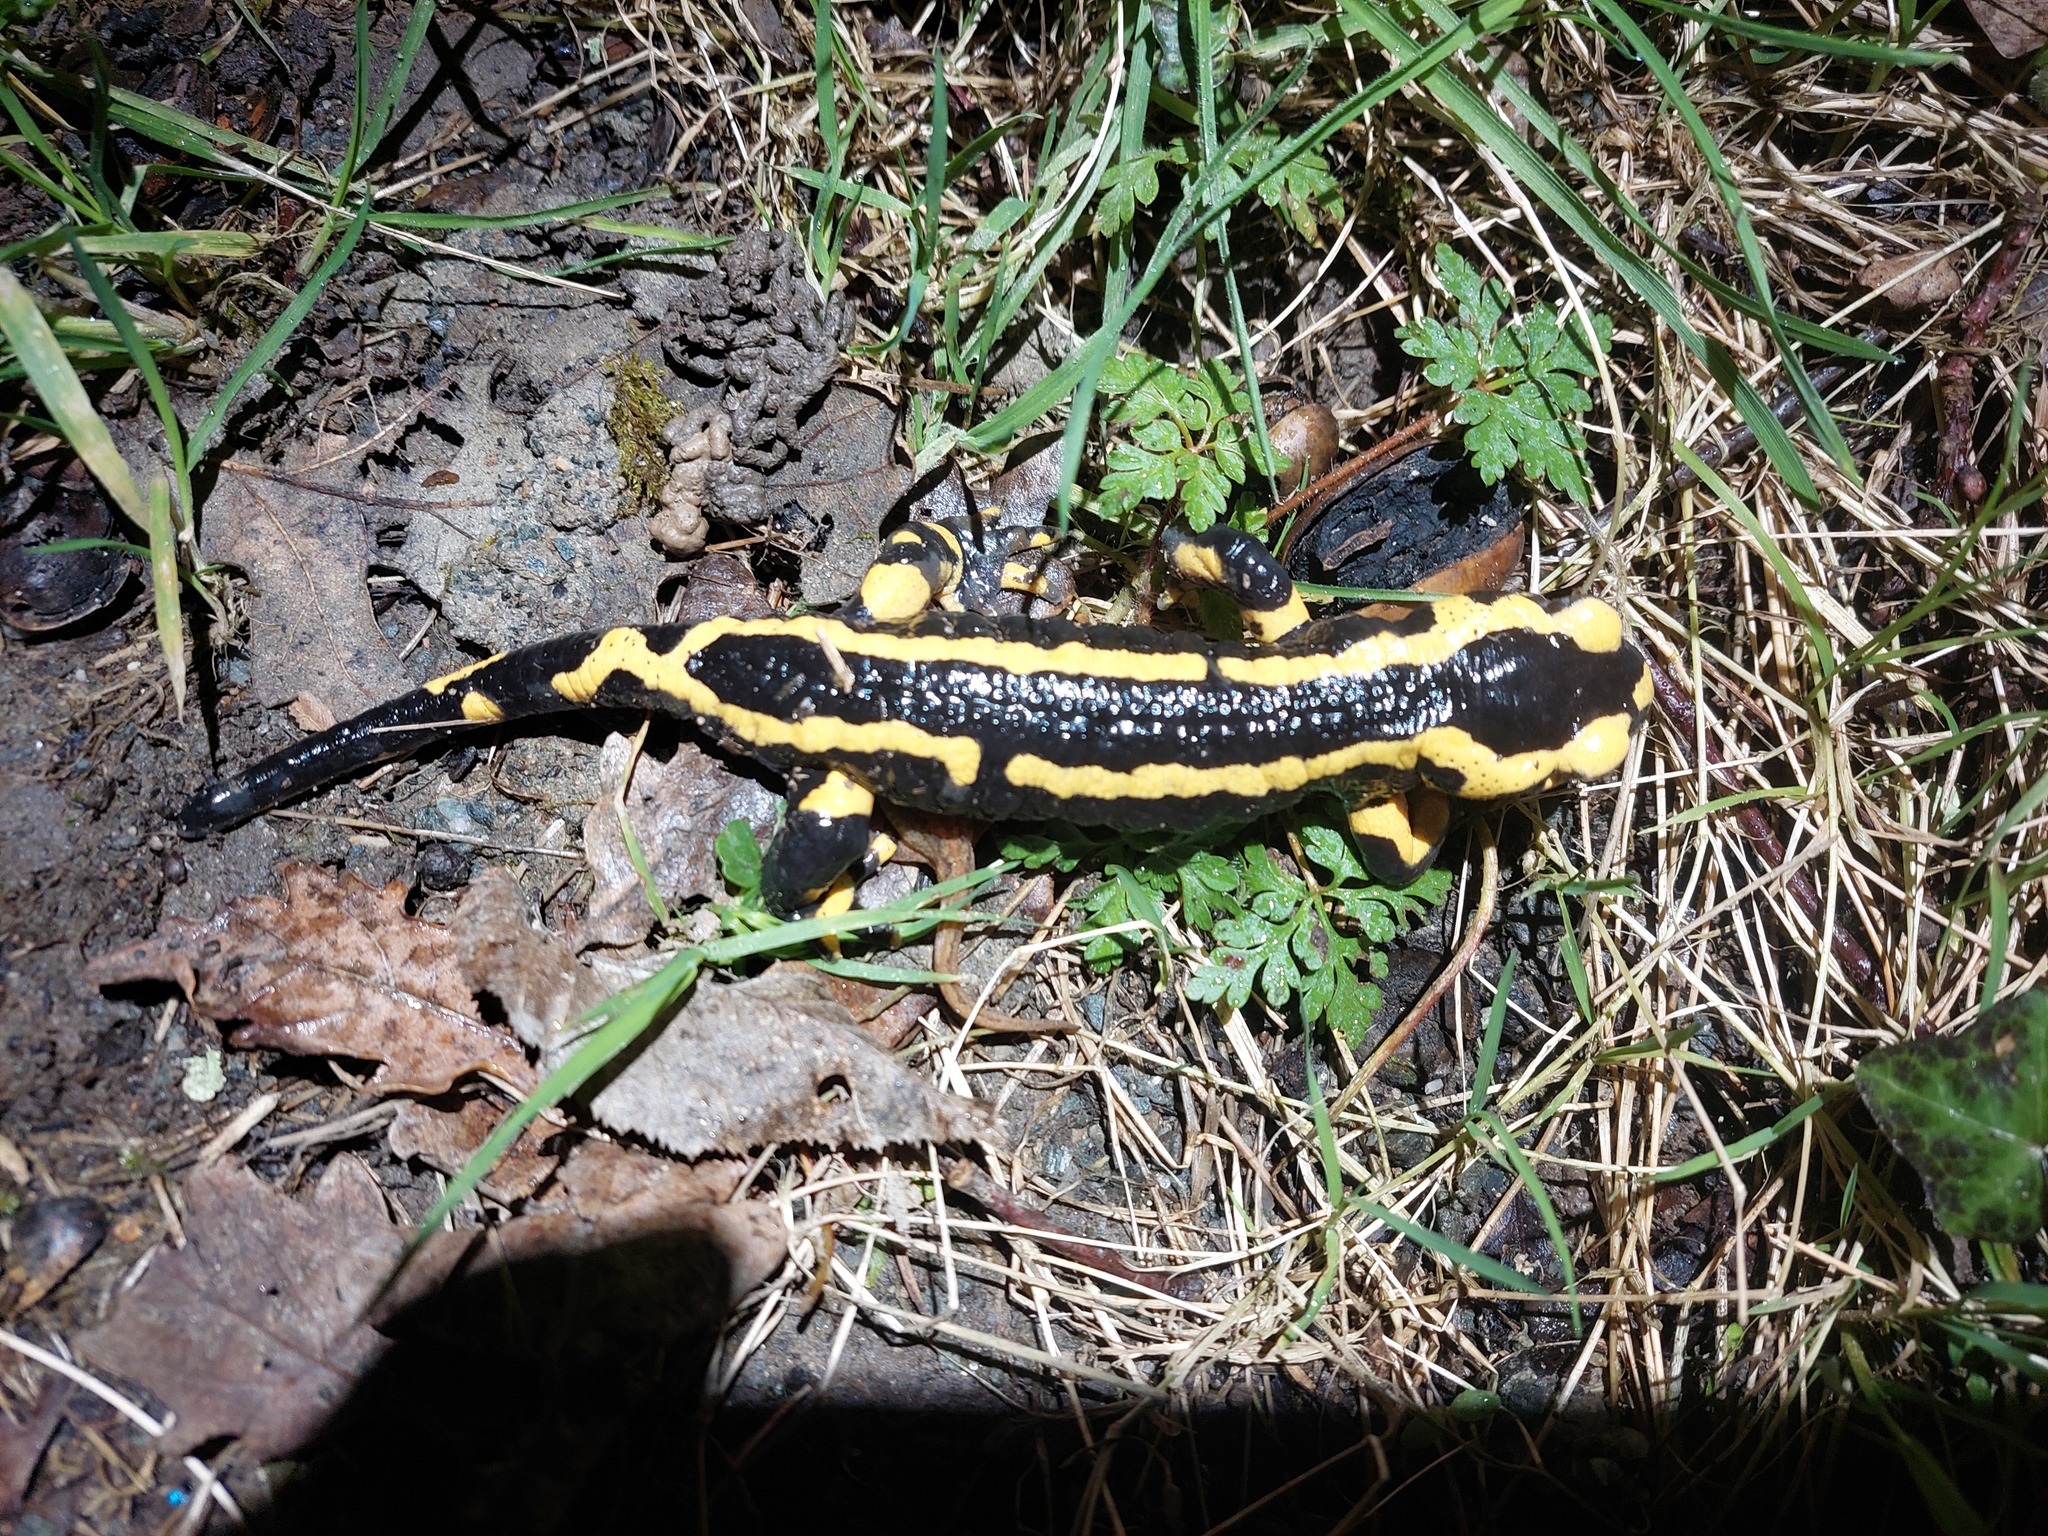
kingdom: Animalia
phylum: Chordata
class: Amphibia
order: Caudata
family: Salamandridae
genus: Salamandra
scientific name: Salamandra salamandra
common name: Fire salamander
